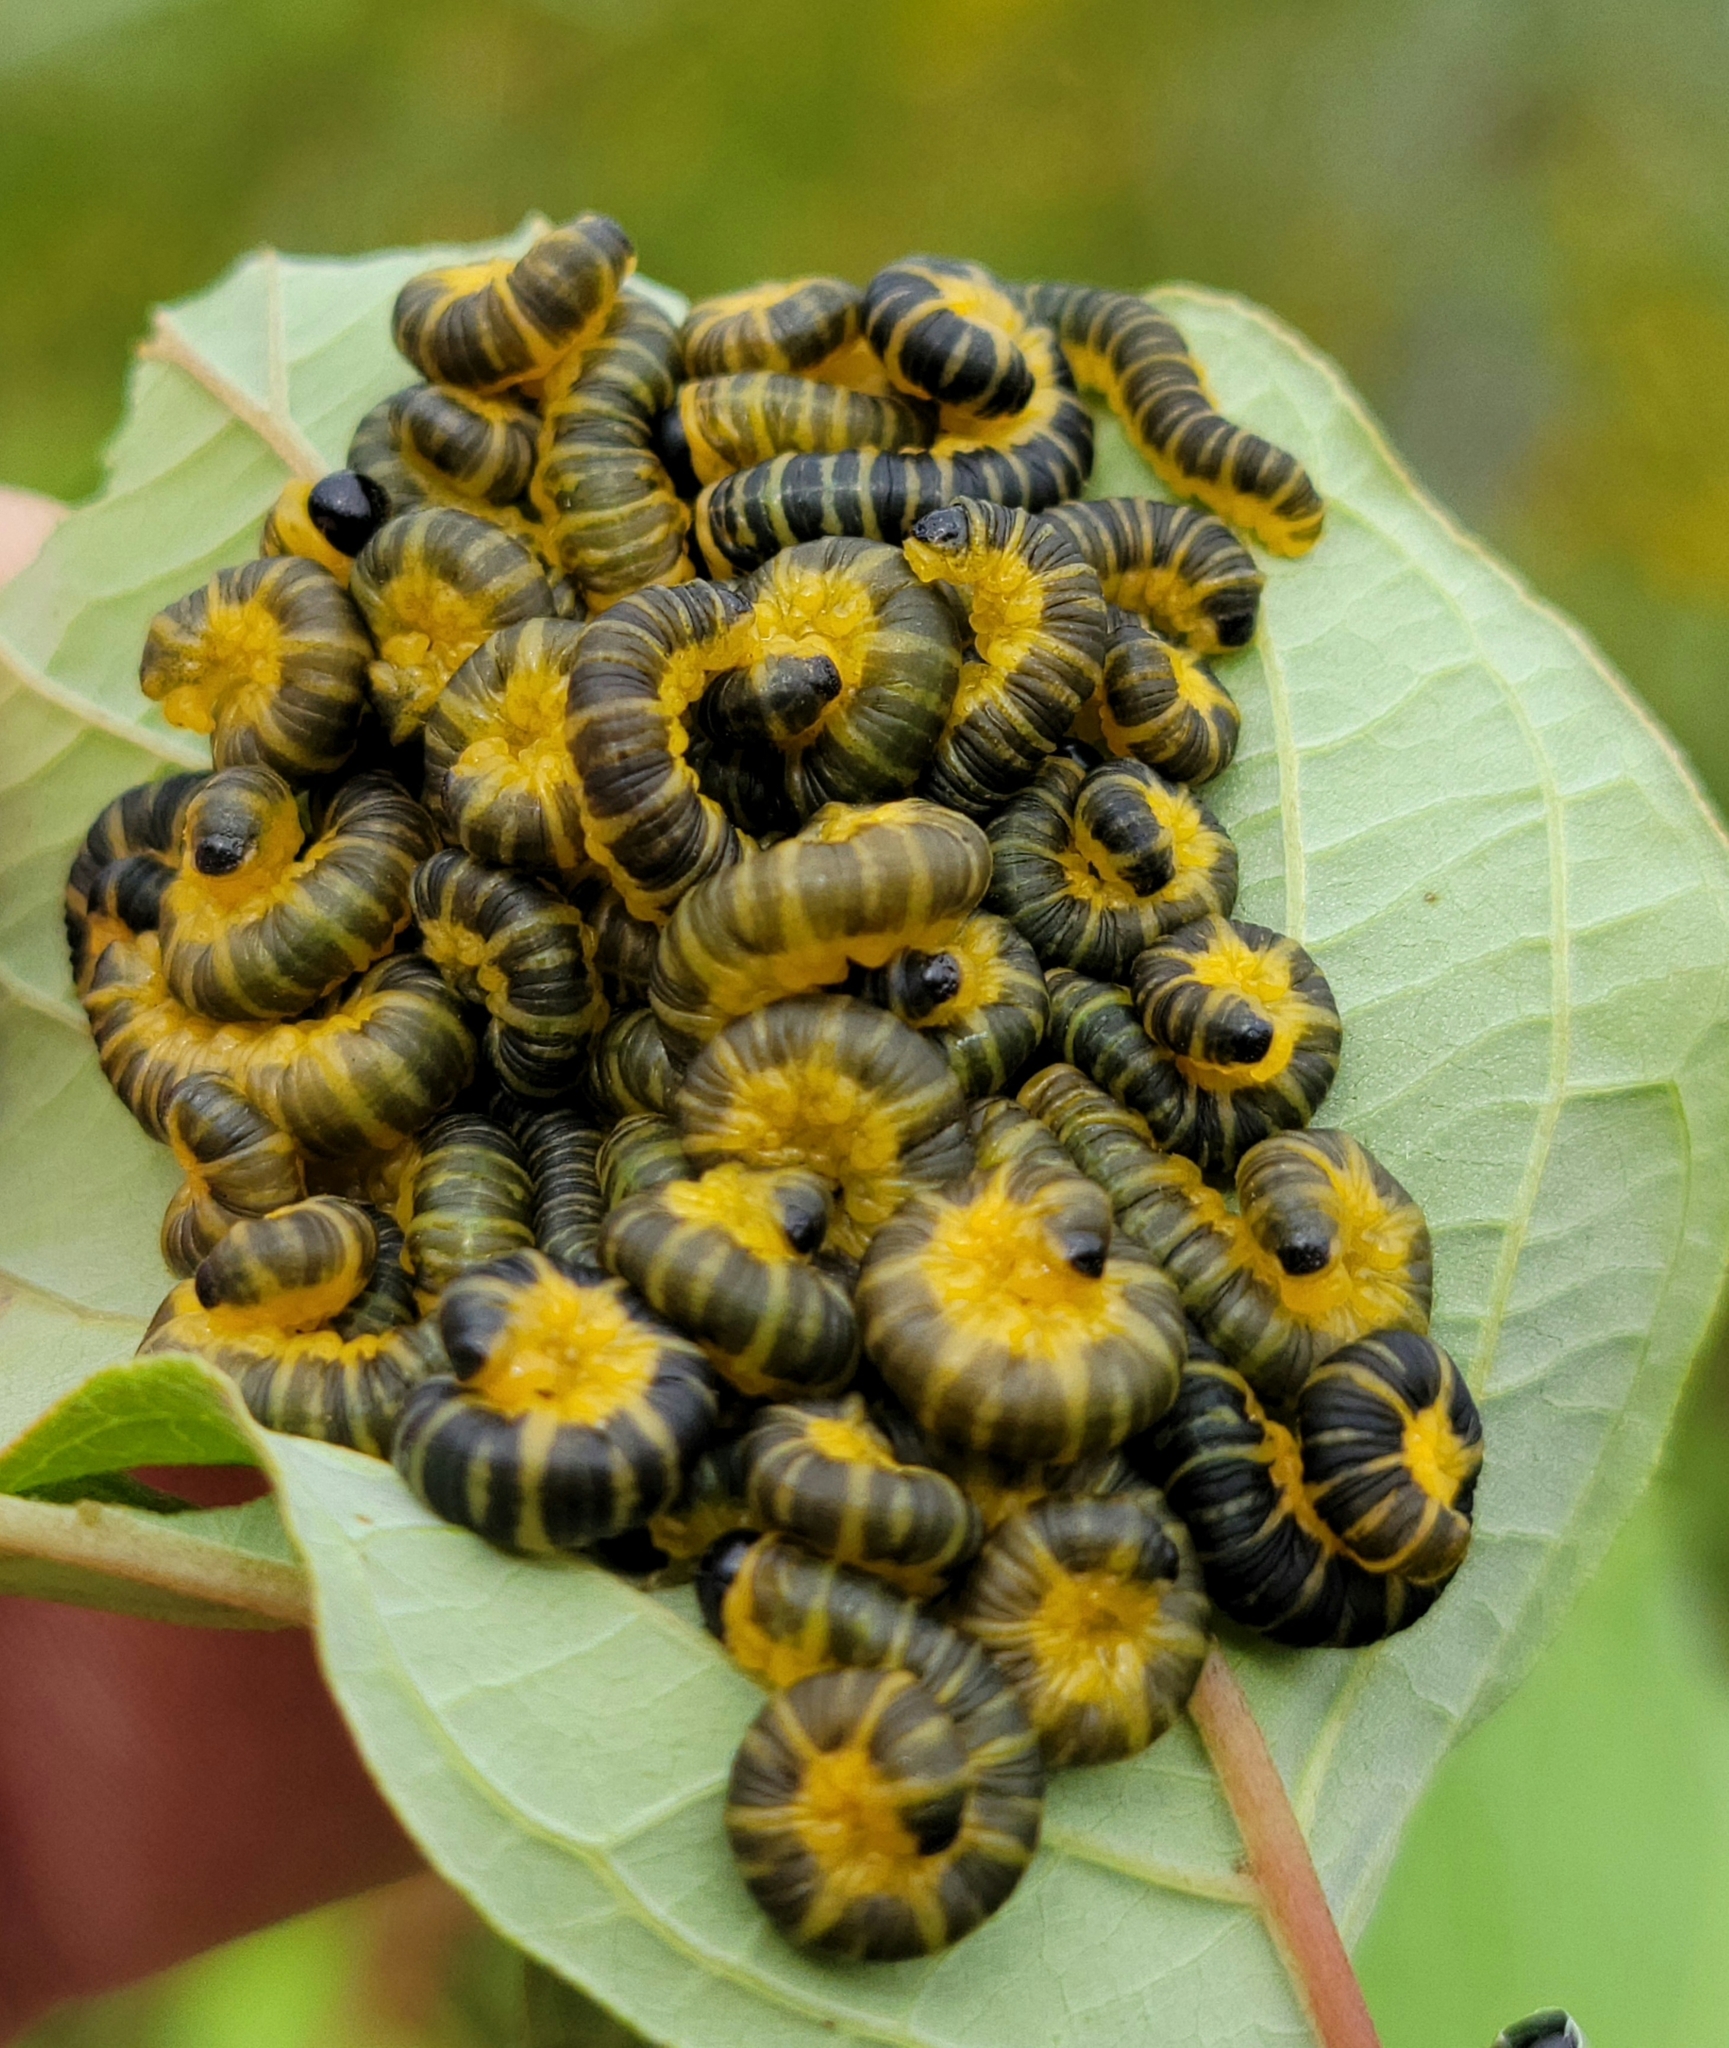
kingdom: Animalia
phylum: Arthropoda
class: Insecta
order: Hymenoptera
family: Tenthredinidae
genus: Macremphytus
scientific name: Macremphytus
